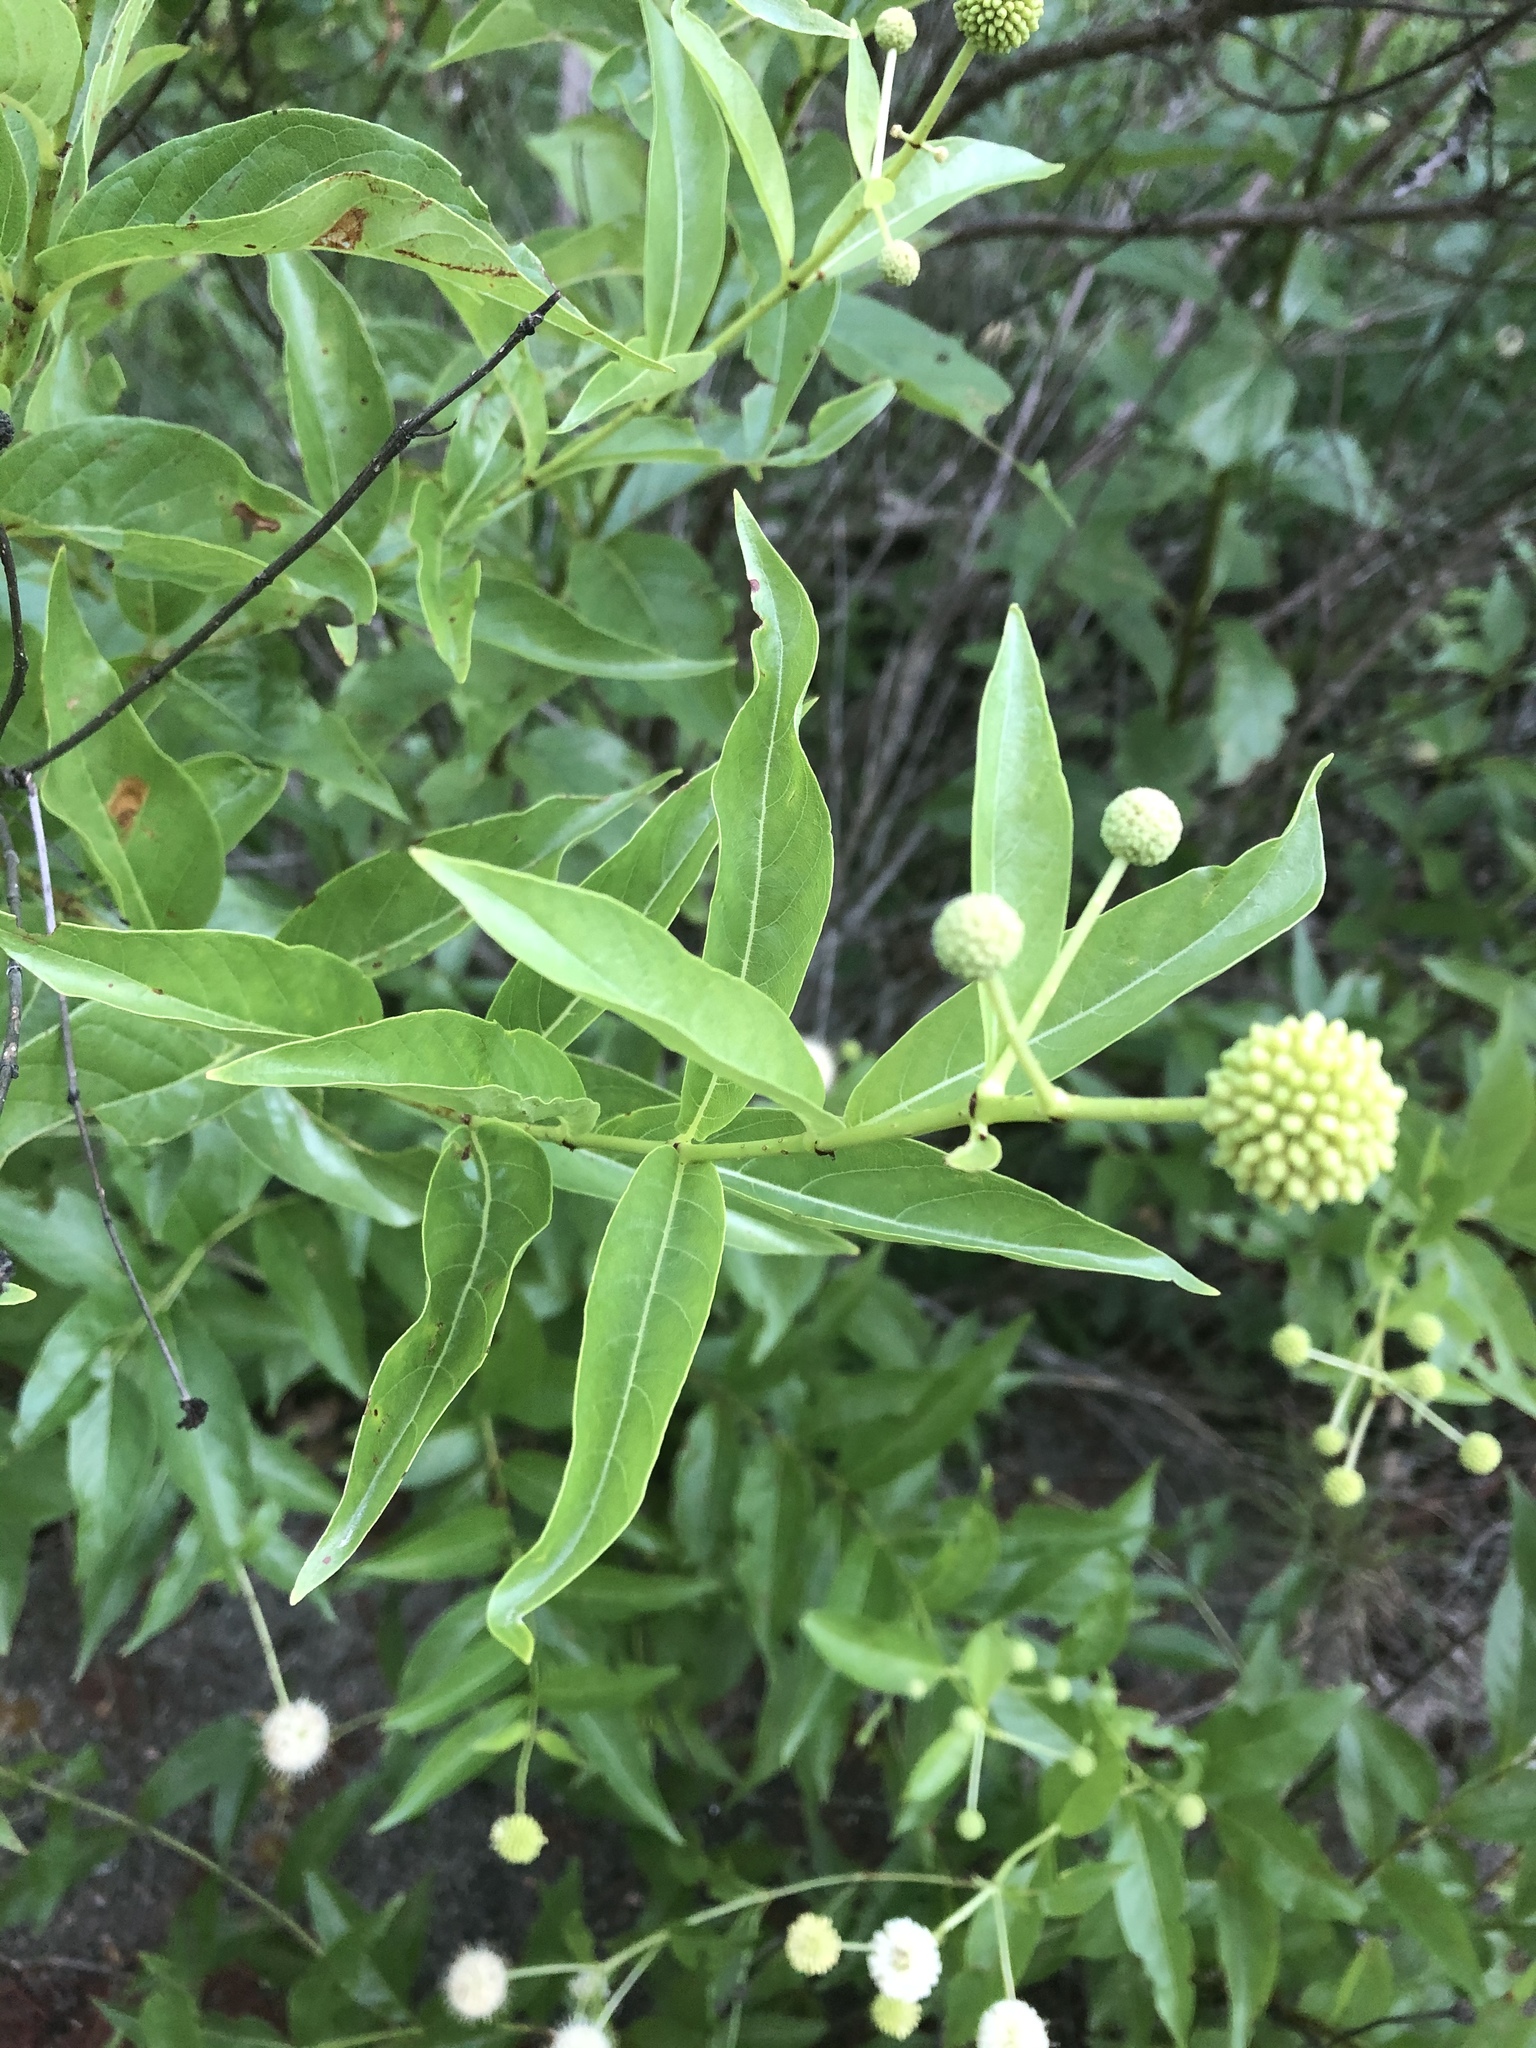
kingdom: Plantae
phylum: Tracheophyta
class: Magnoliopsida
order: Gentianales
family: Rubiaceae
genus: Cephalanthus
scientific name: Cephalanthus occidentalis
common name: Button-willow
